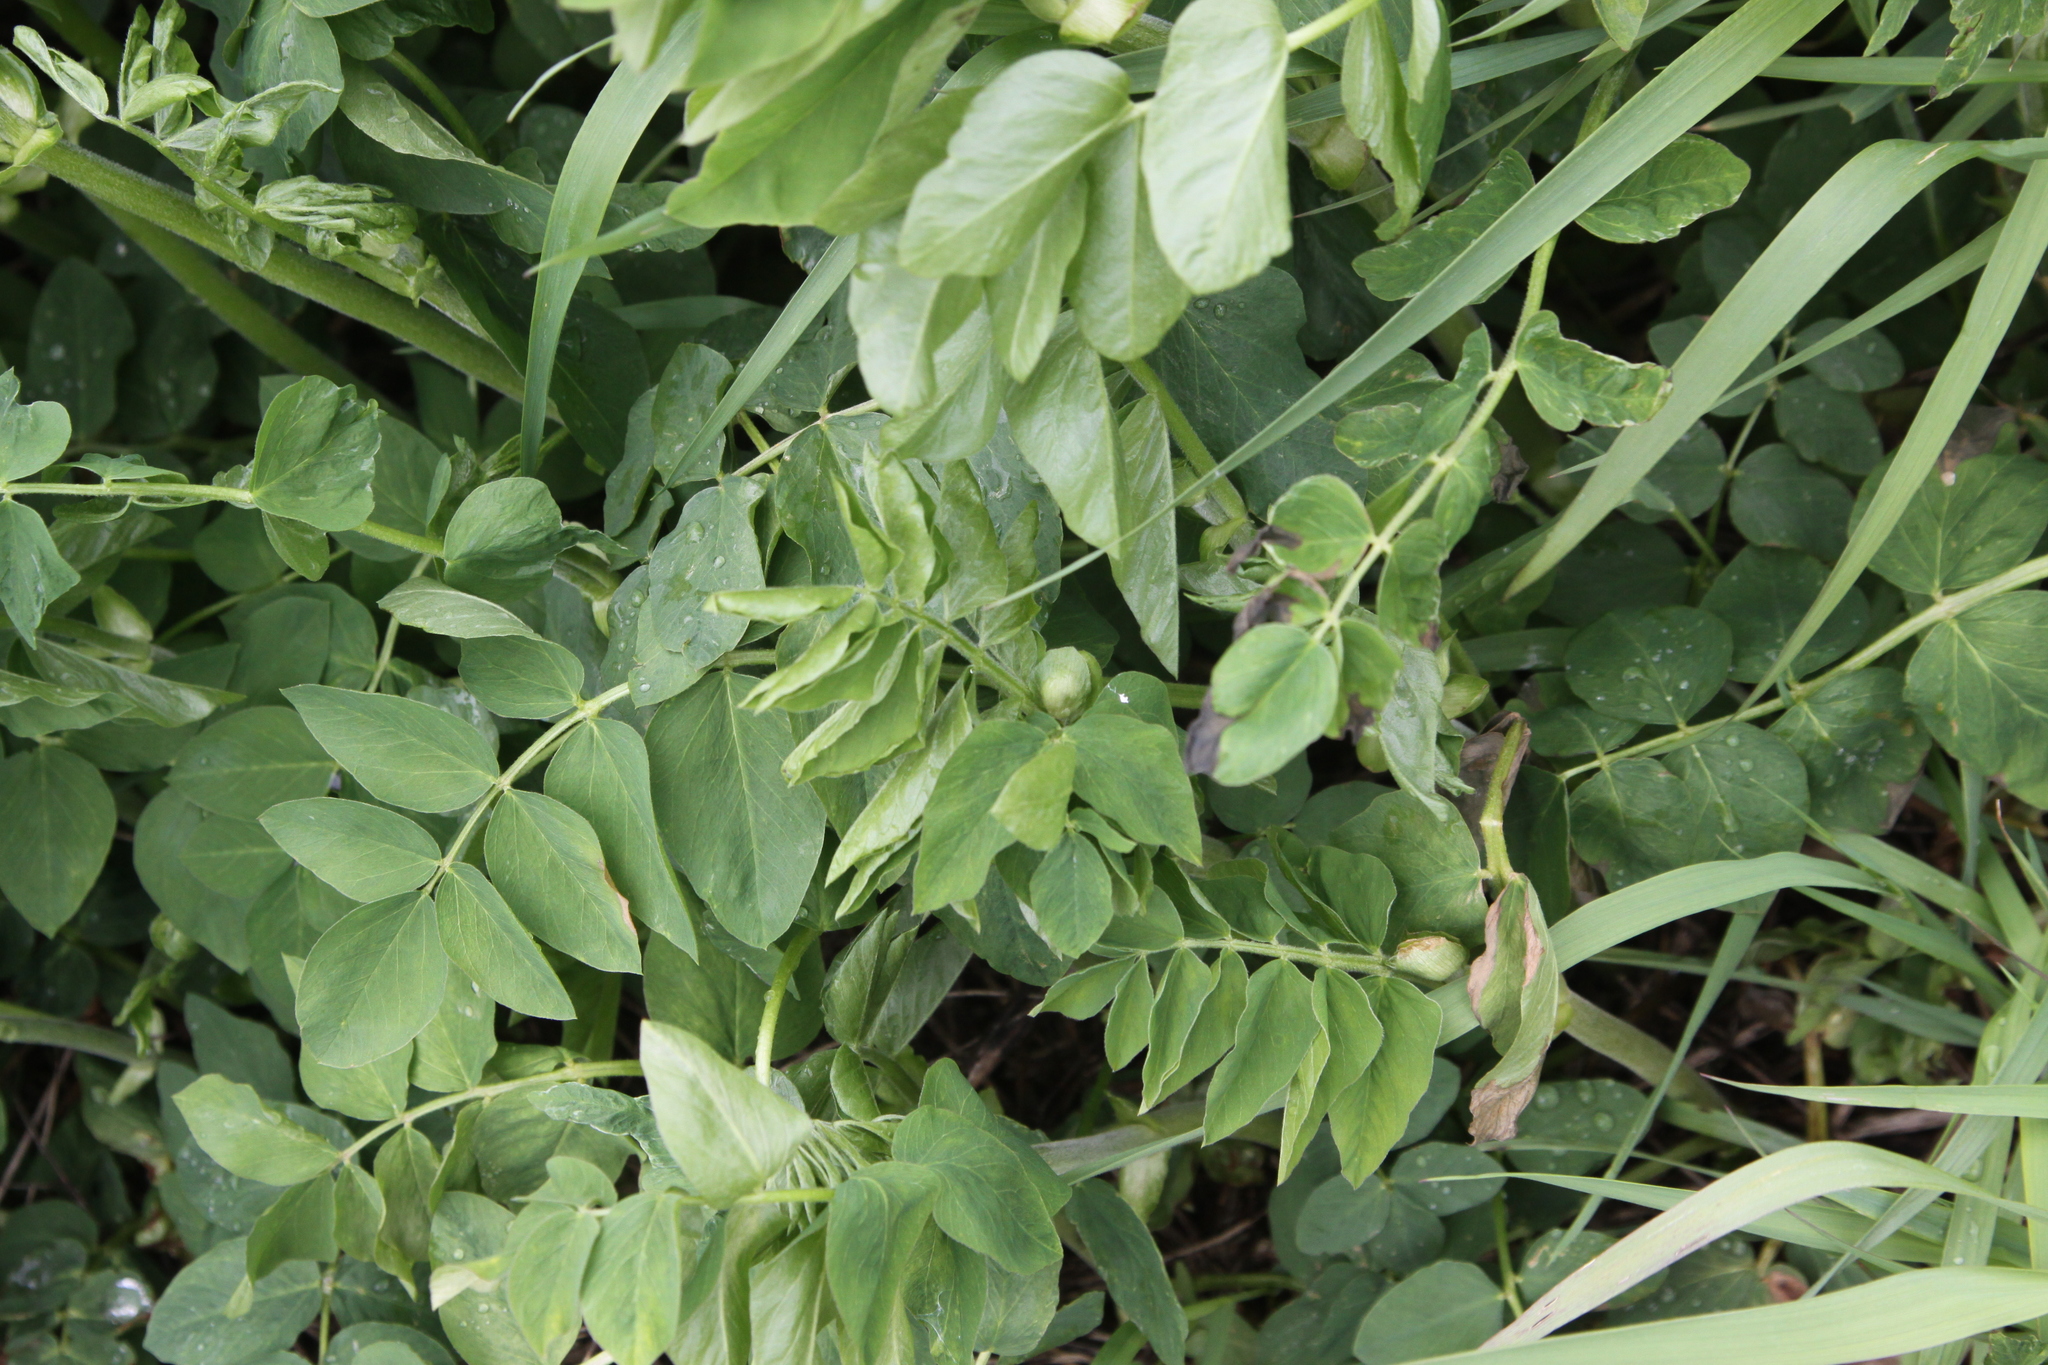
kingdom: Plantae
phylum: Tracheophyta
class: Magnoliopsida
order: Fabales
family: Fabaceae
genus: Galega
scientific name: Galega orientalis
